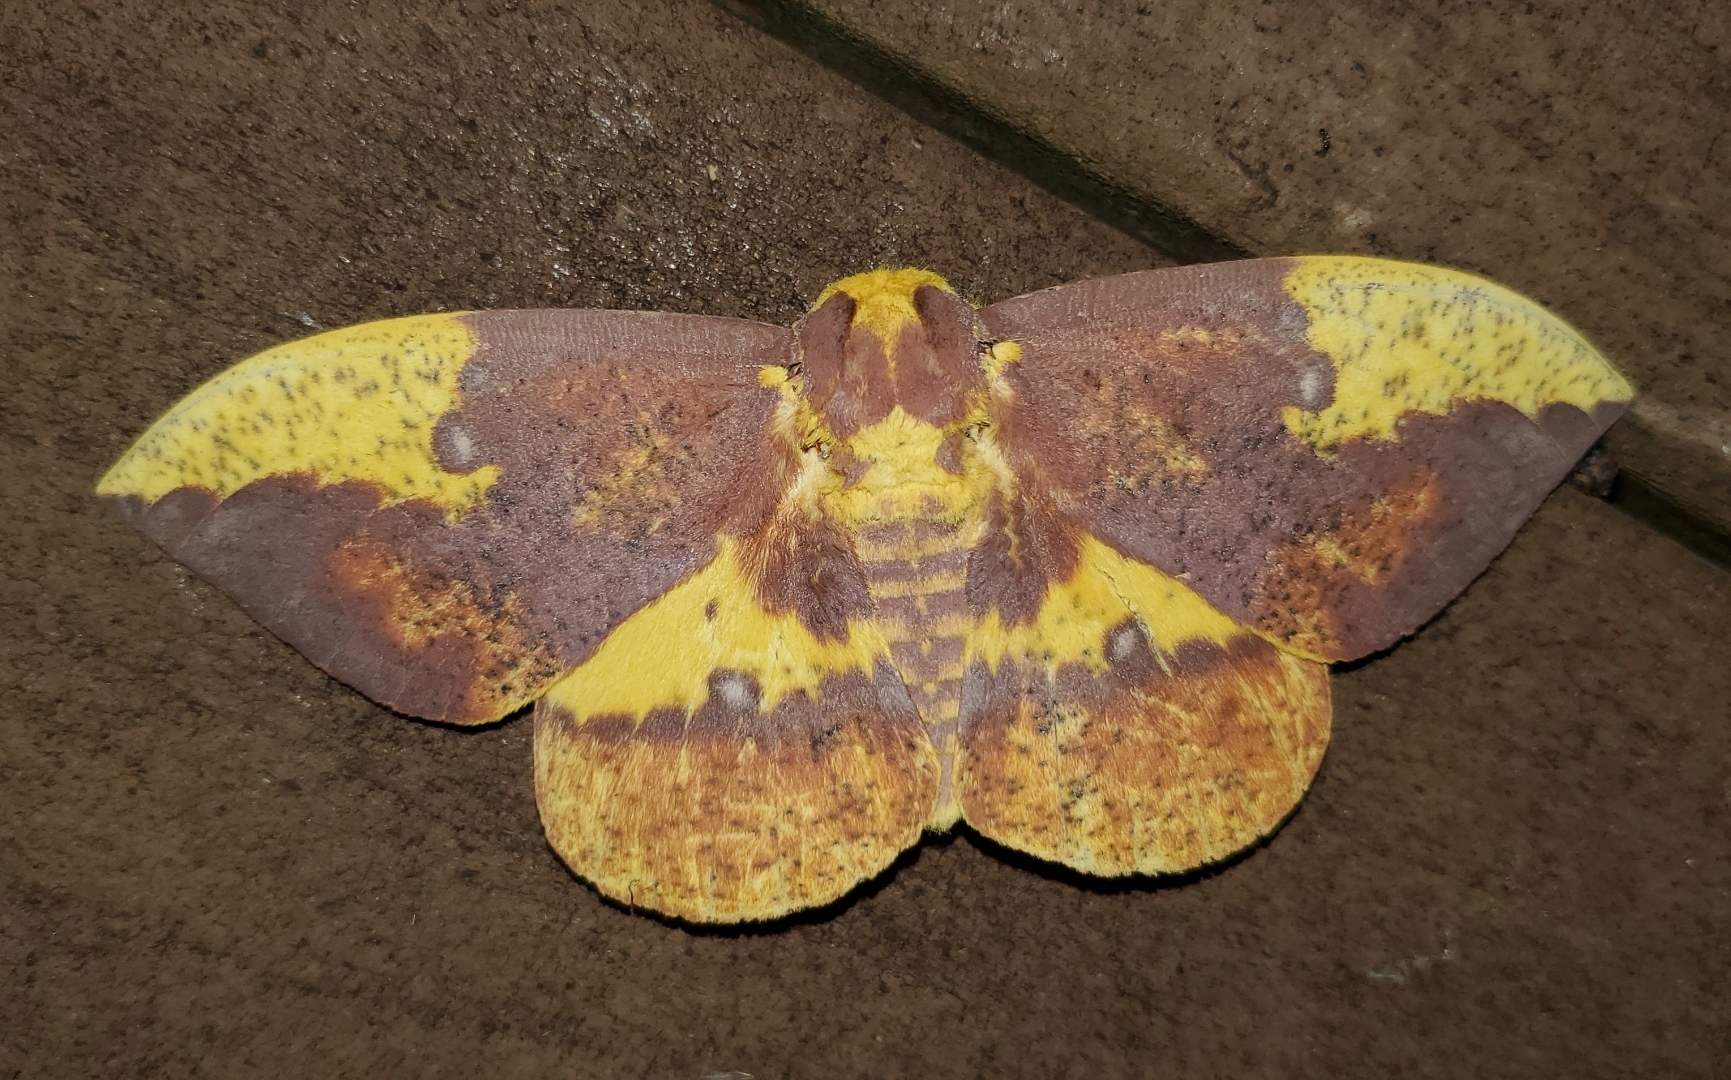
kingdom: Animalia
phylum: Arthropoda
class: Insecta
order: Lepidoptera
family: Saturniidae
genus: Eacles
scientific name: Eacles imperialis
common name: Imperial moth
